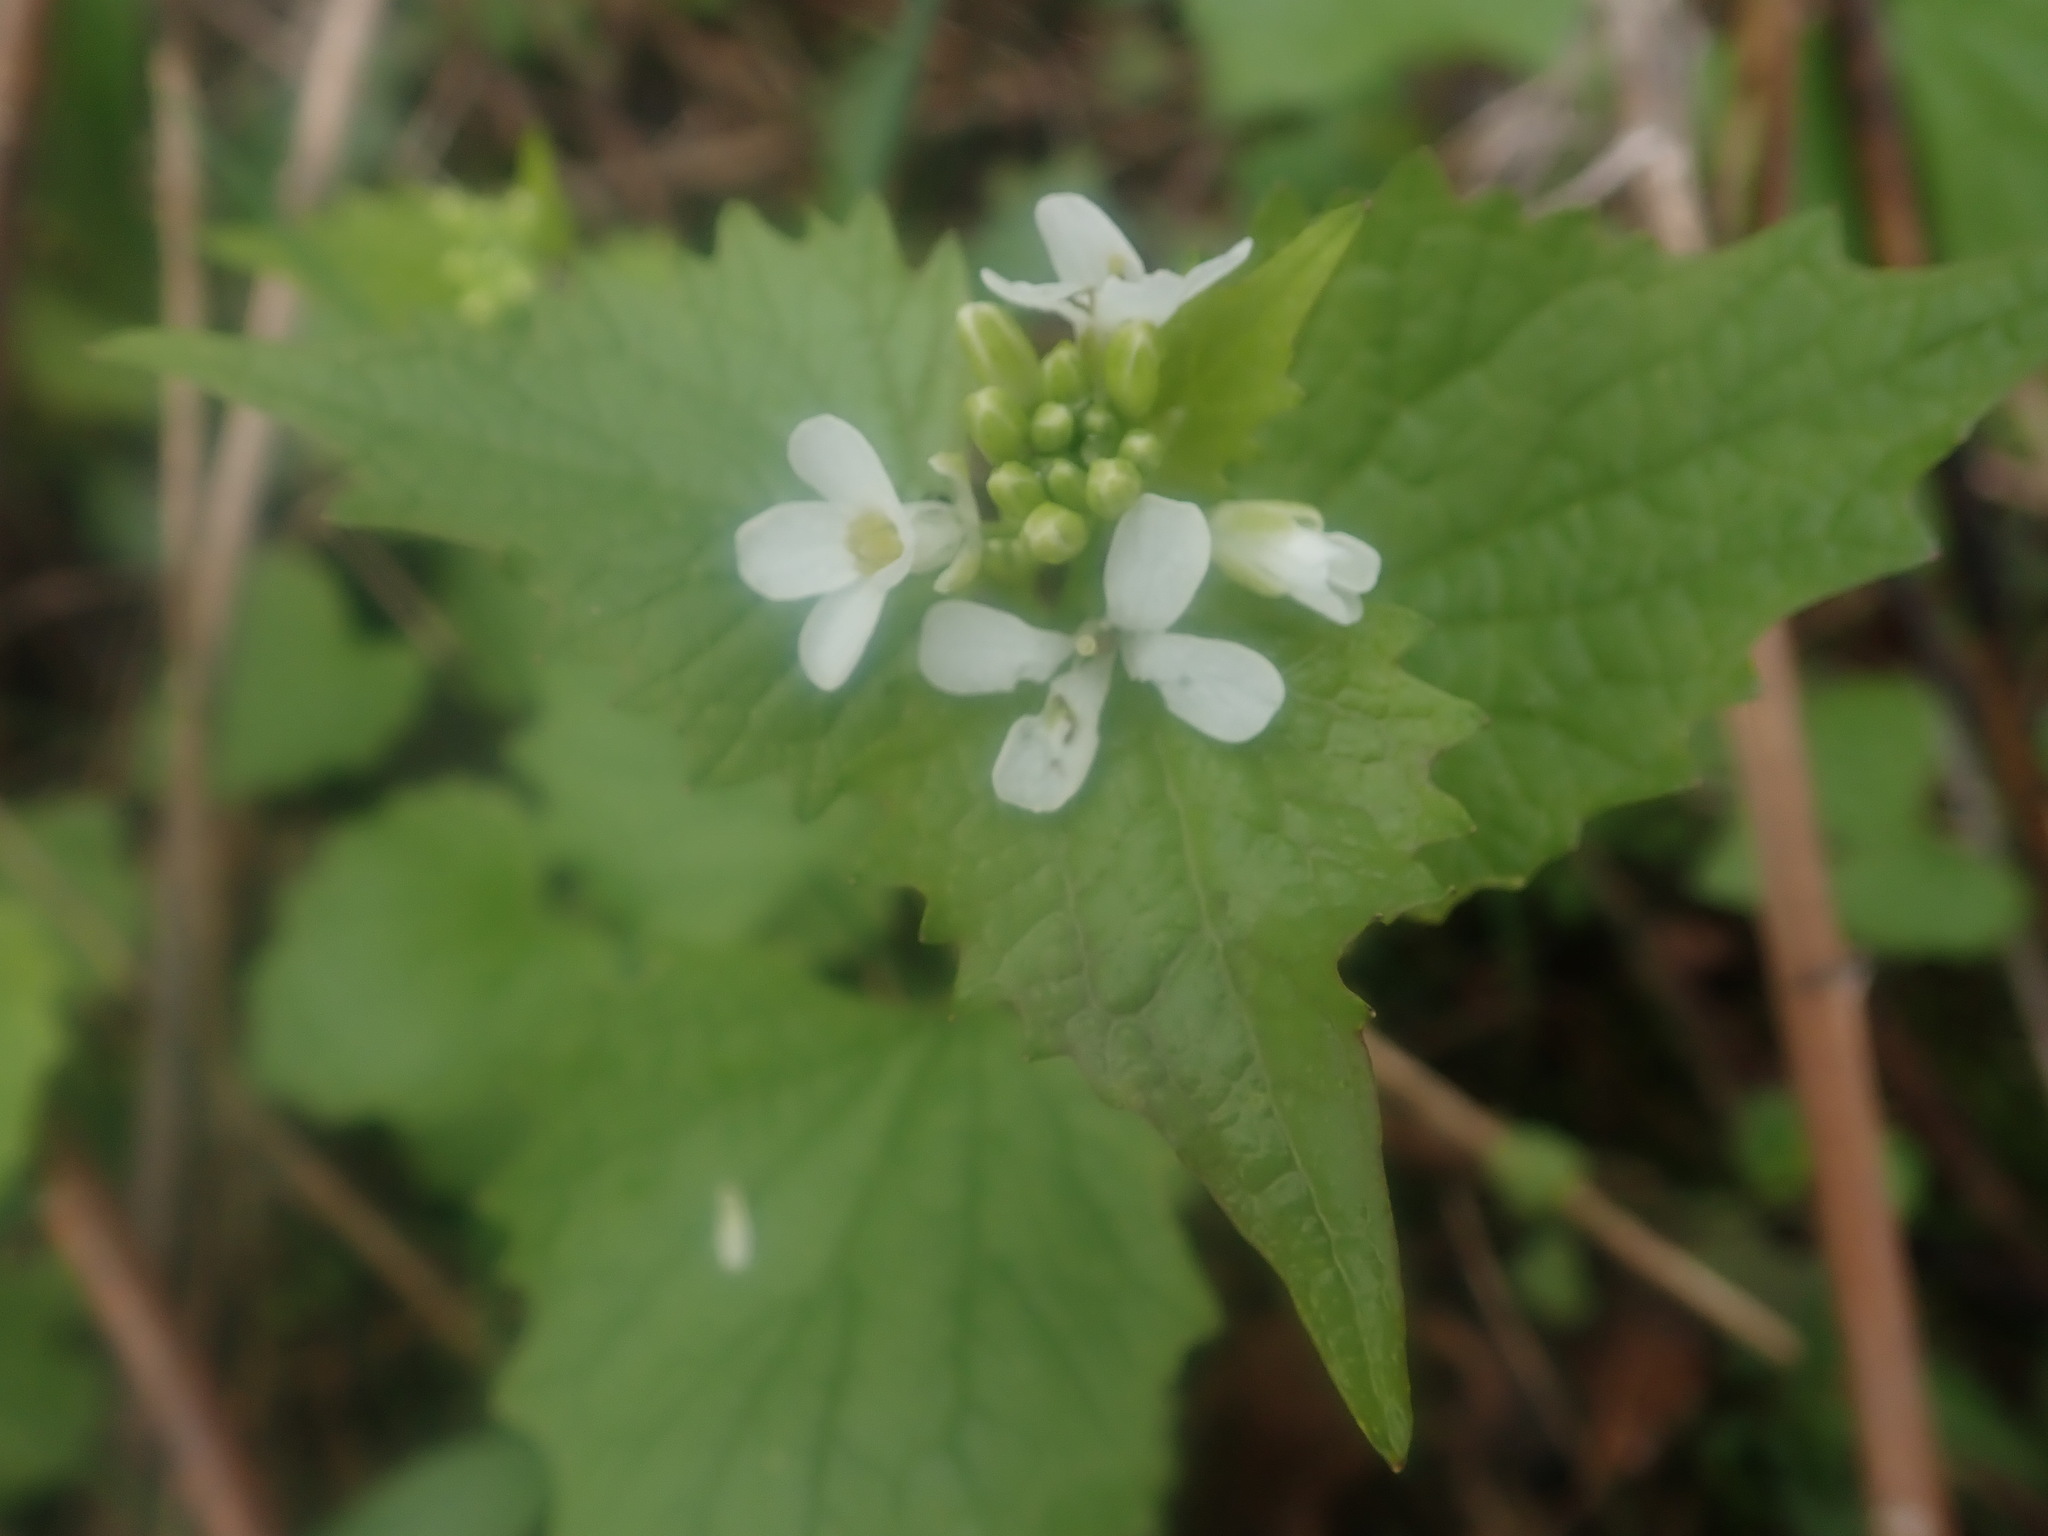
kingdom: Plantae
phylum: Tracheophyta
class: Magnoliopsida
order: Brassicales
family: Brassicaceae
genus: Alliaria
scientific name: Alliaria petiolata
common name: Garlic mustard
